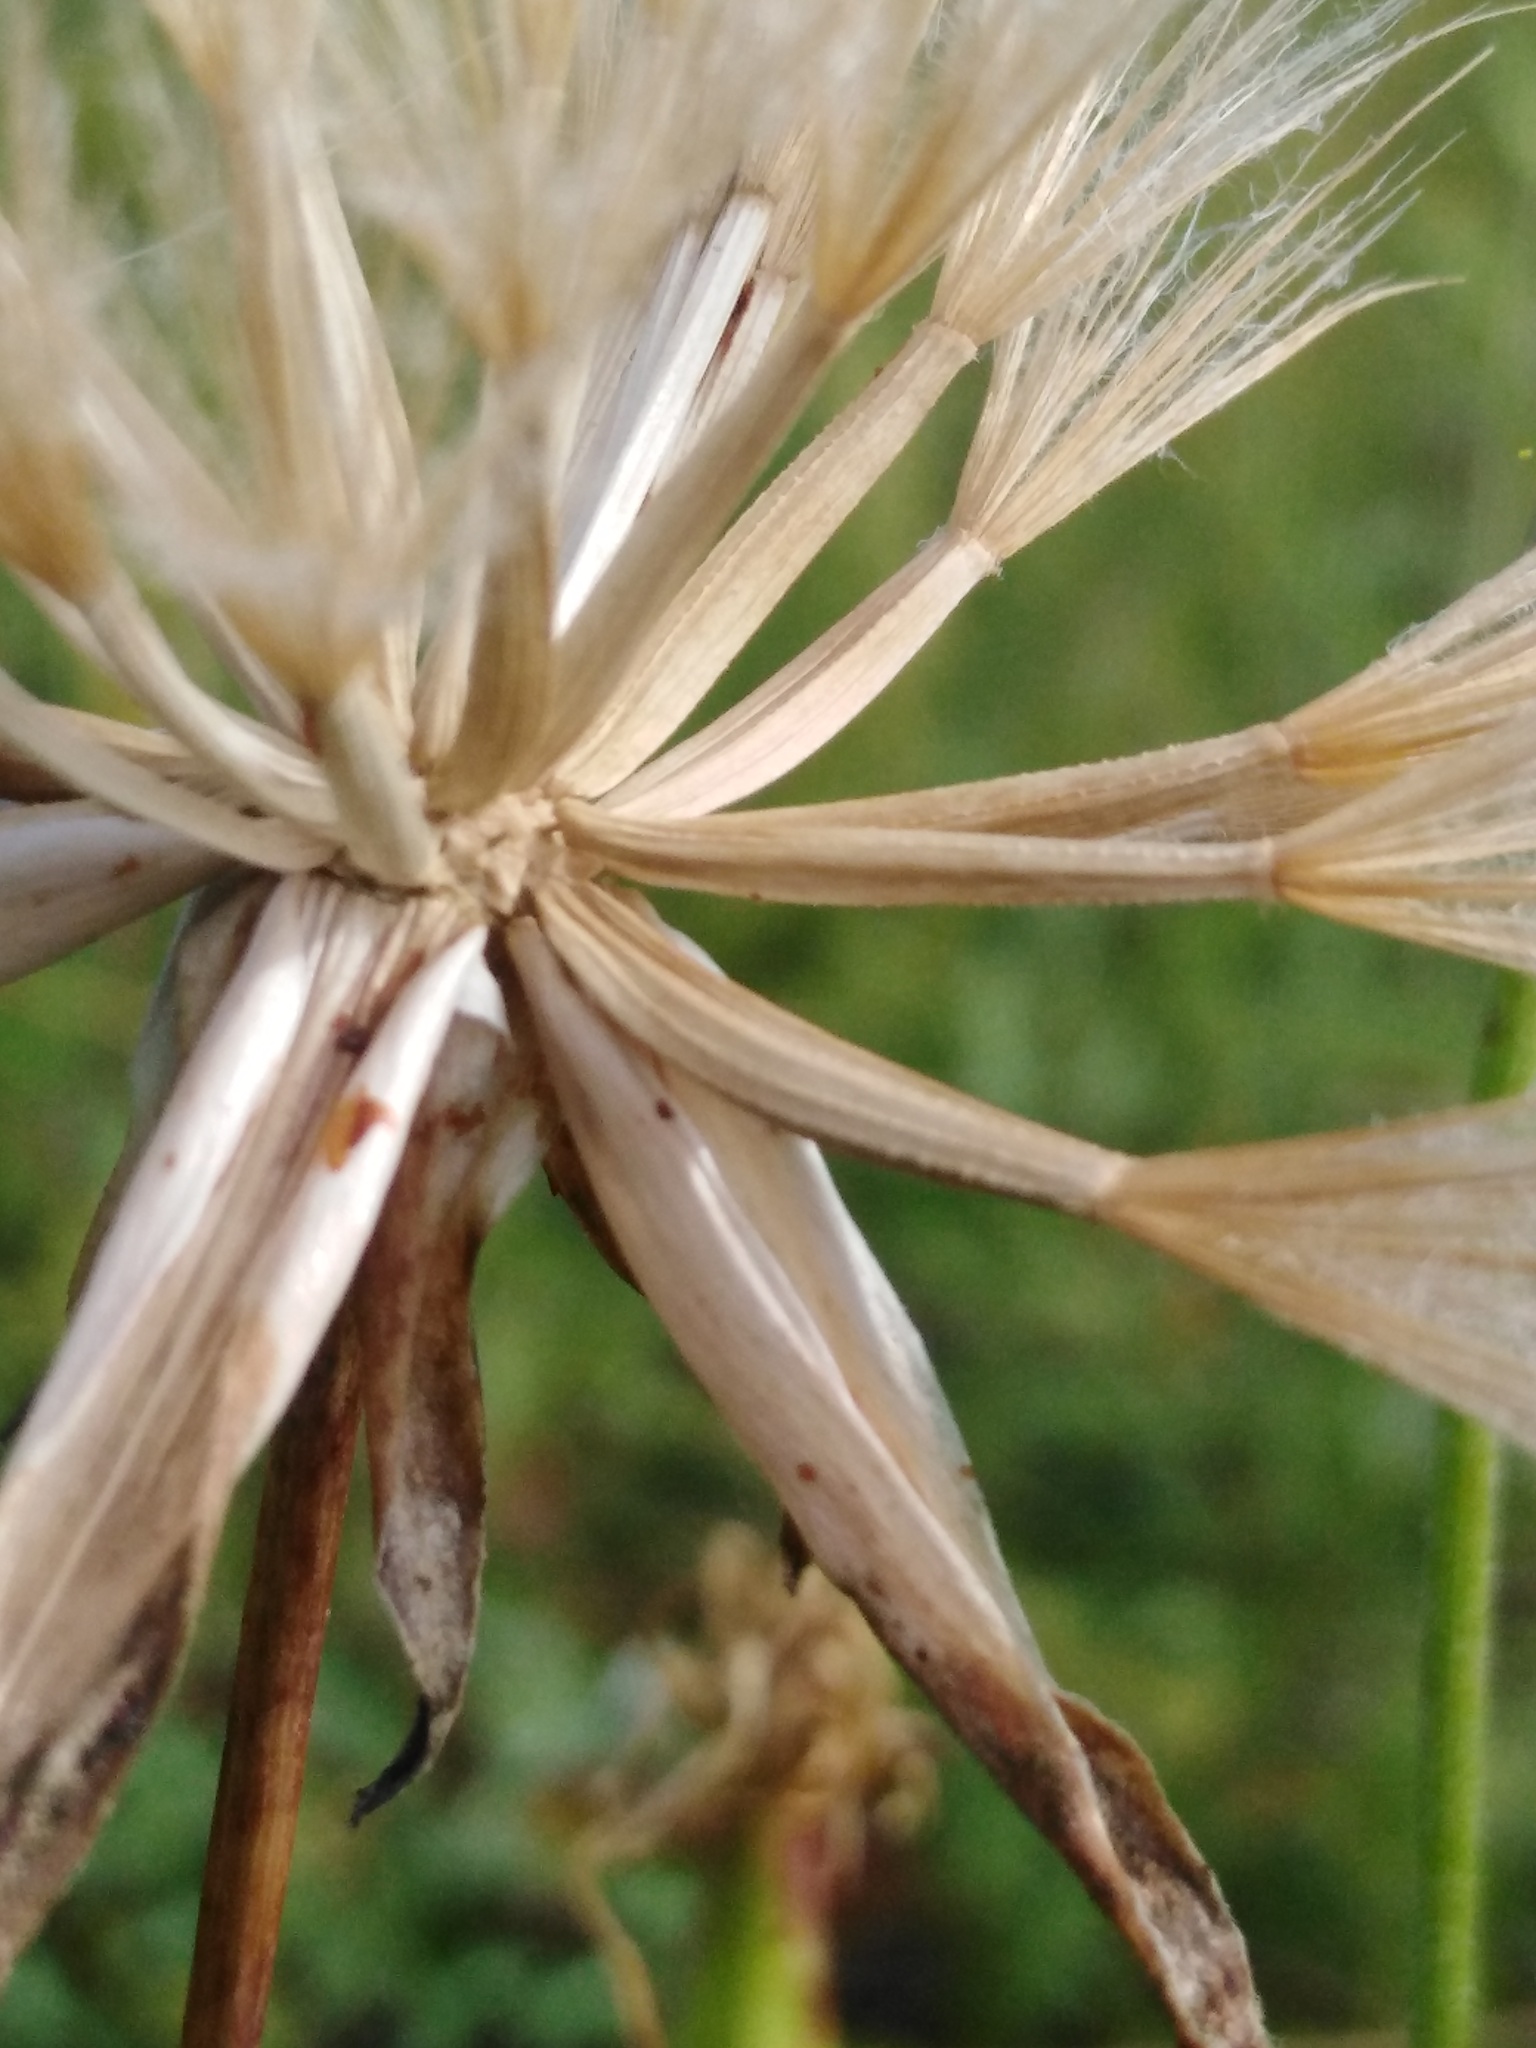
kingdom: Plantae
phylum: Tracheophyta
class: Magnoliopsida
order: Asterales
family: Asteraceae
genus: Pseudopodospermum
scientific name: Pseudopodospermum strictum
